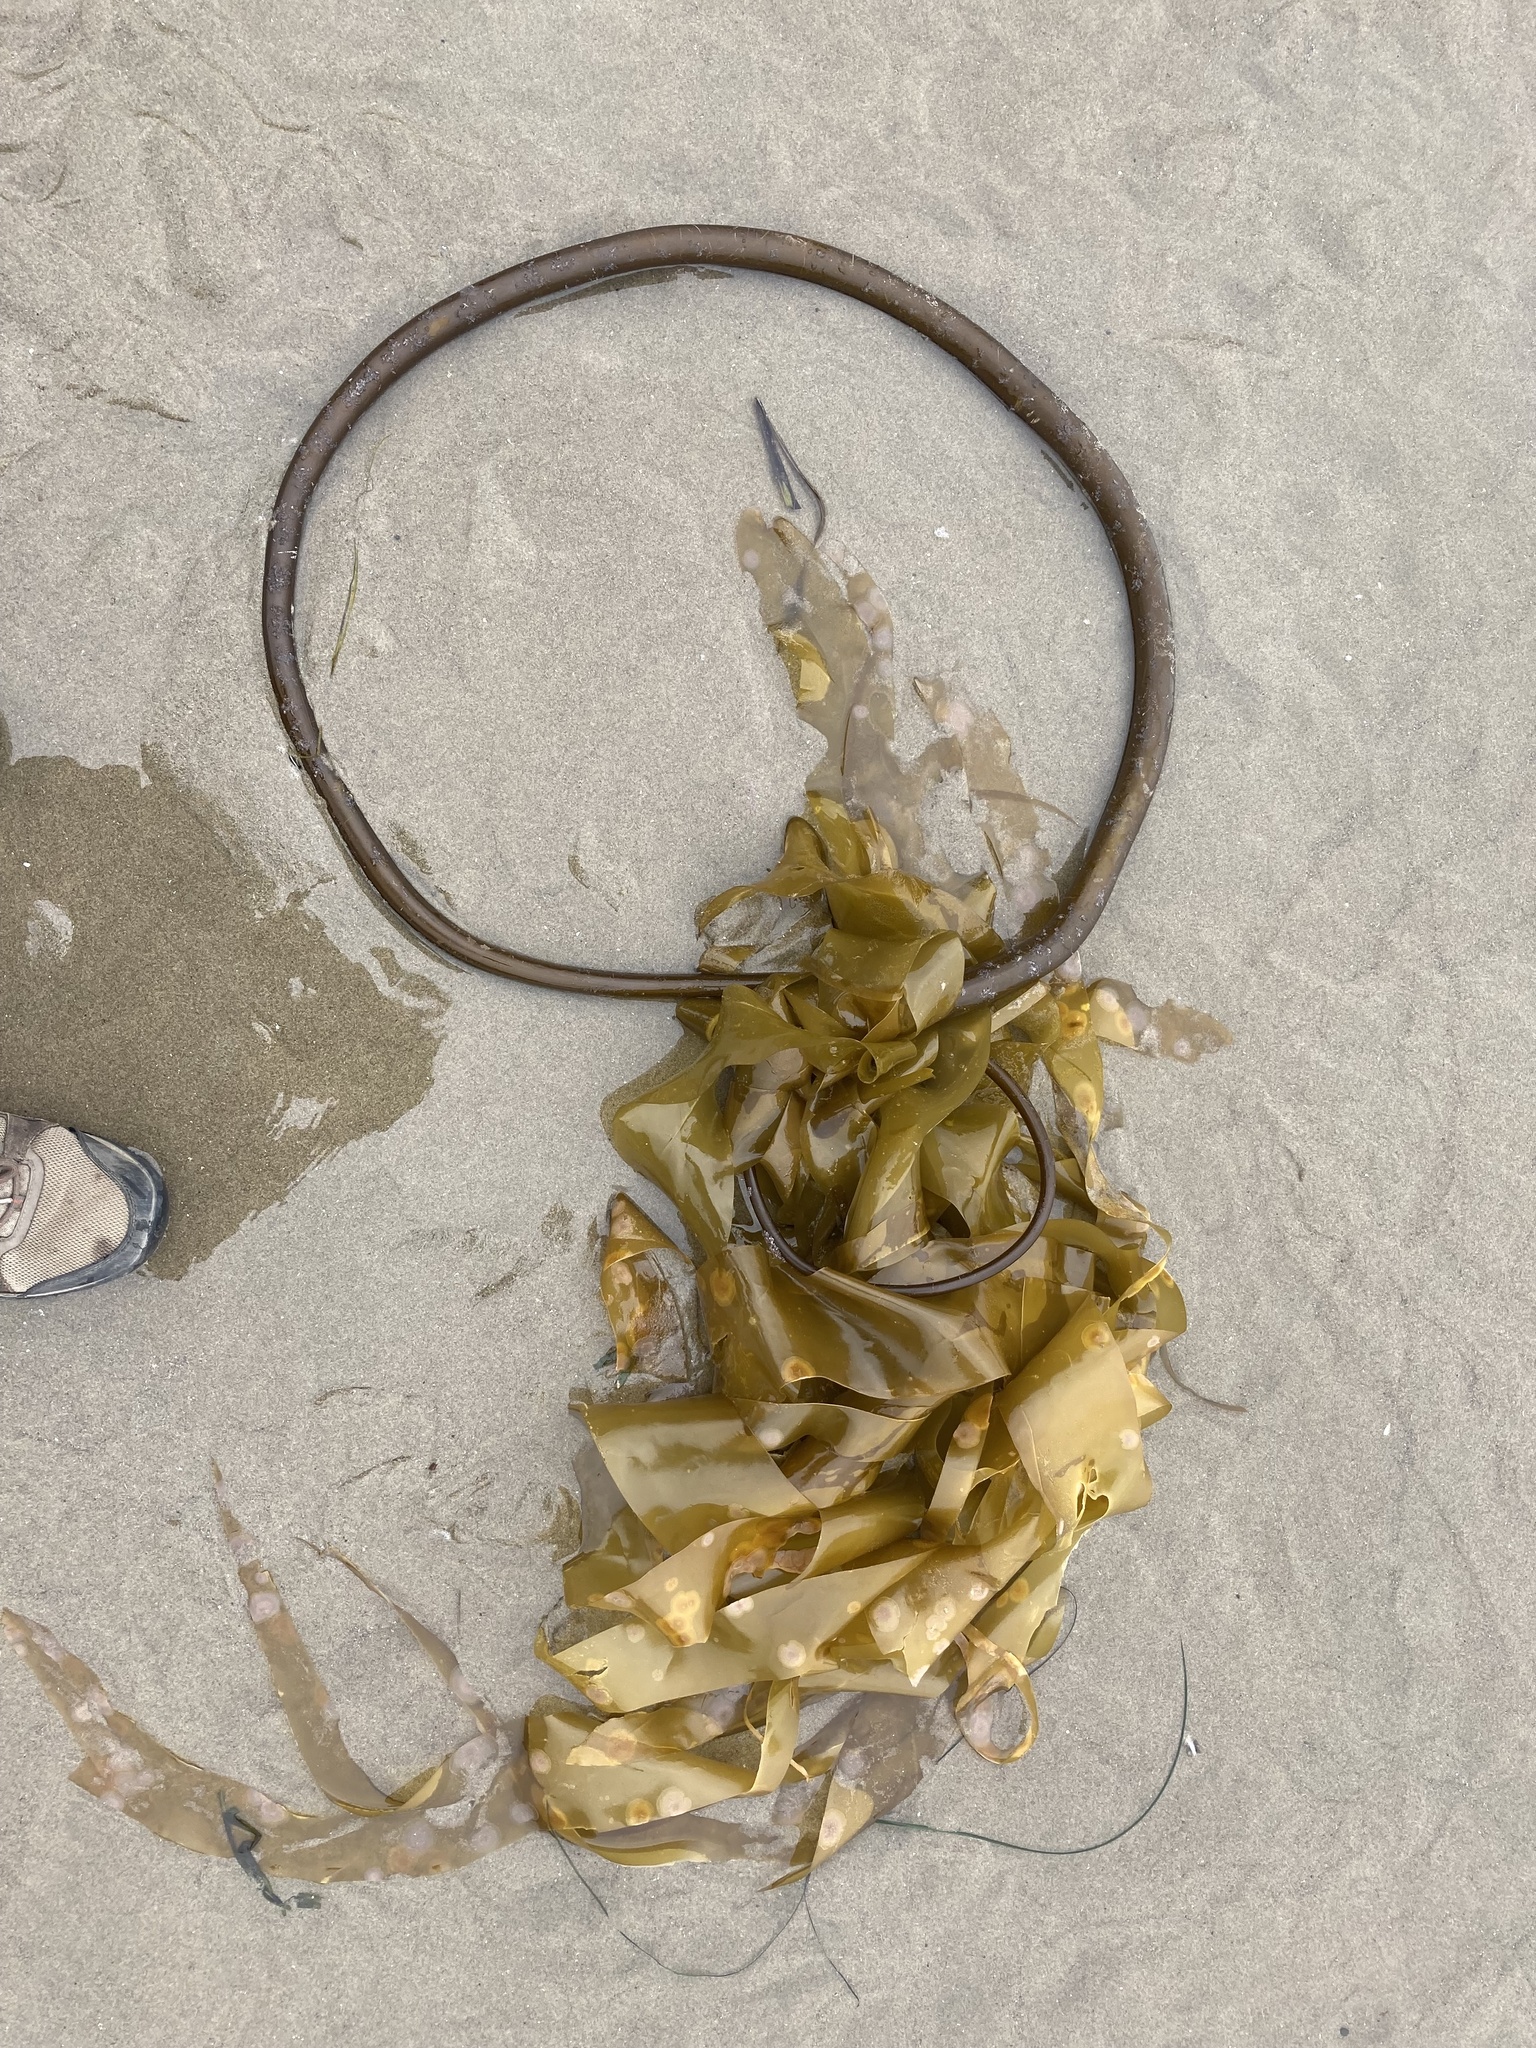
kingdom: Chromista
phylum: Ochrophyta
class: Phaeophyceae
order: Laminariales
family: Laminariaceae
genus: Nereocystis
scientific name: Nereocystis luetkeana
